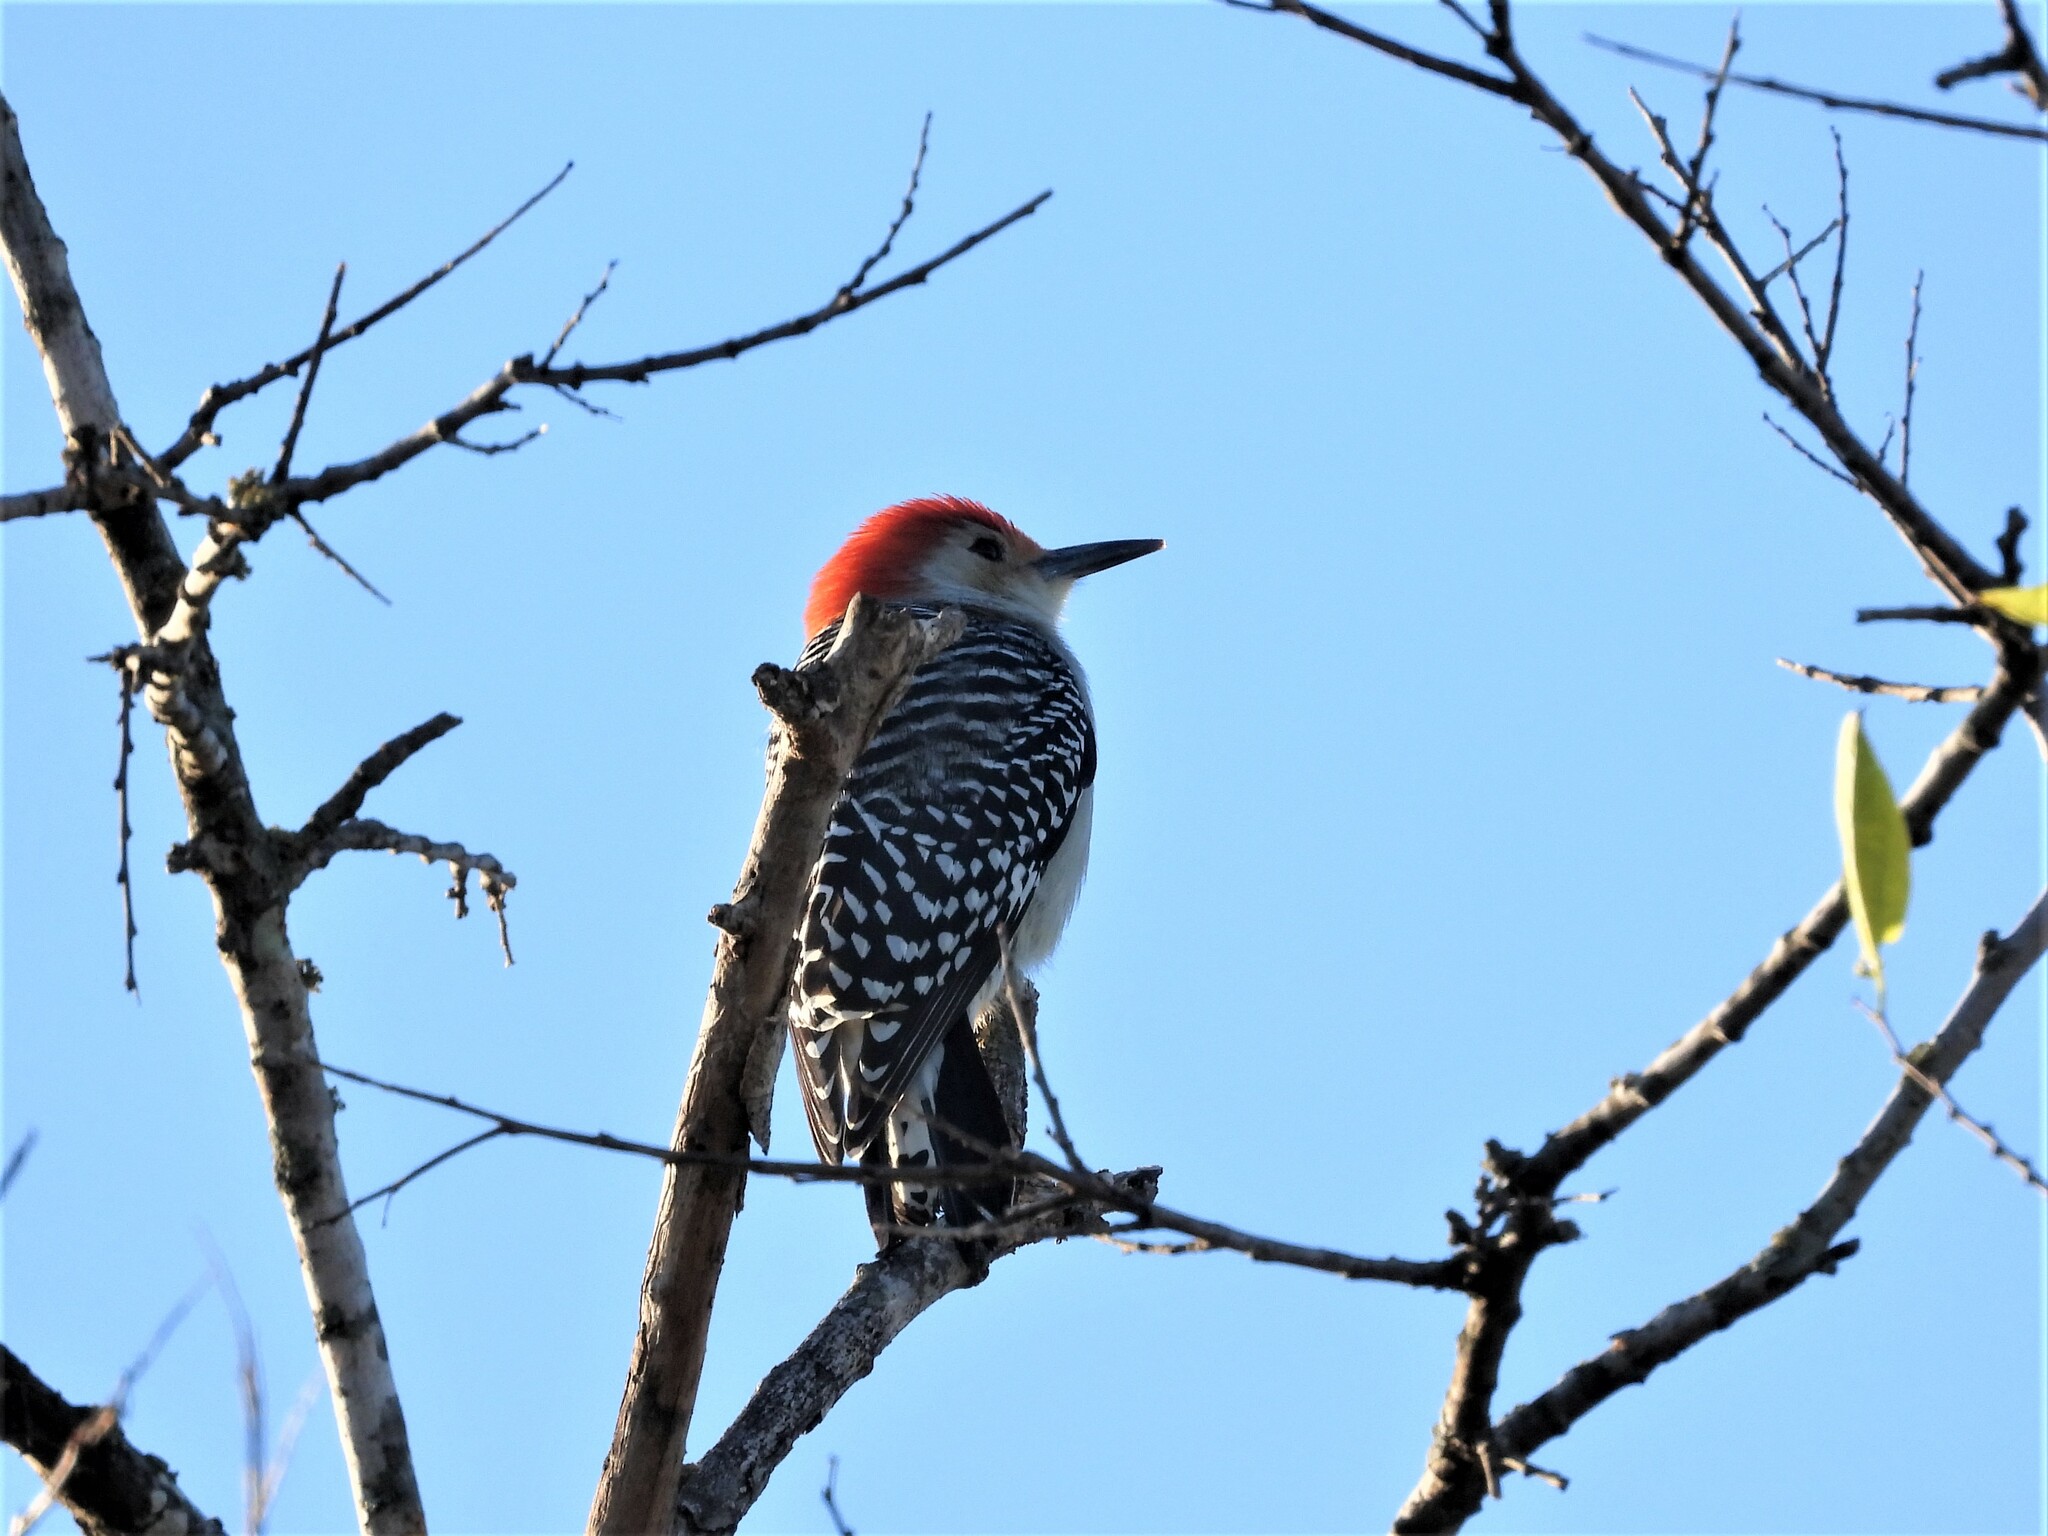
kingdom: Animalia
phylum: Chordata
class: Aves
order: Piciformes
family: Picidae
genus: Melanerpes
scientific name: Melanerpes carolinus
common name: Red-bellied woodpecker
